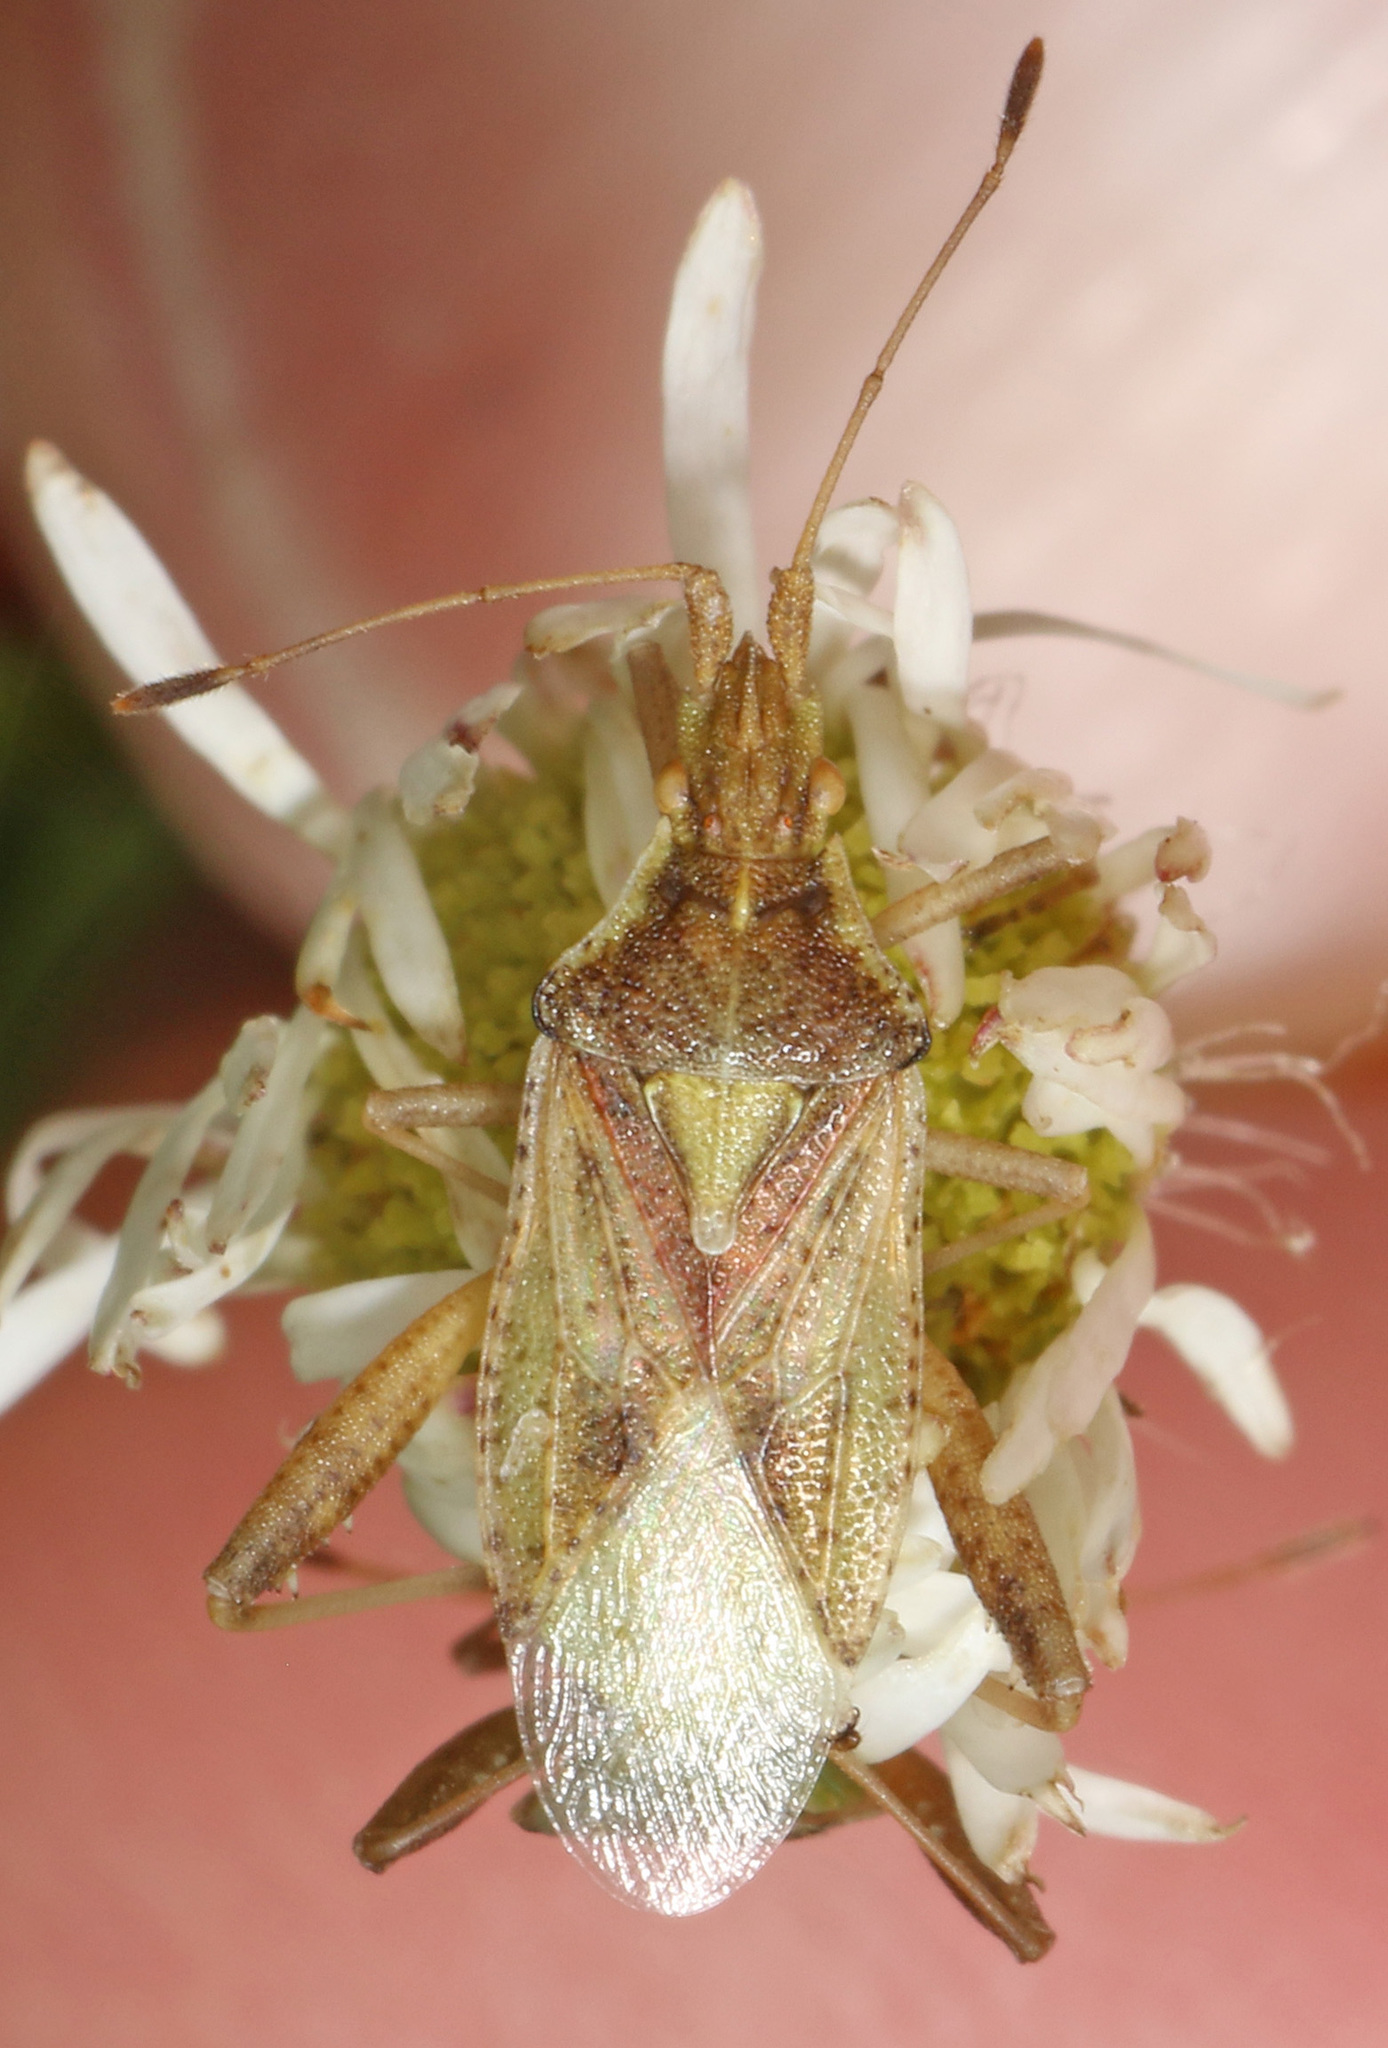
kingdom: Animalia
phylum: Arthropoda
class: Insecta
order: Hemiptera
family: Rhopalidae
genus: Harmostes
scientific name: Harmostes reflexulus
